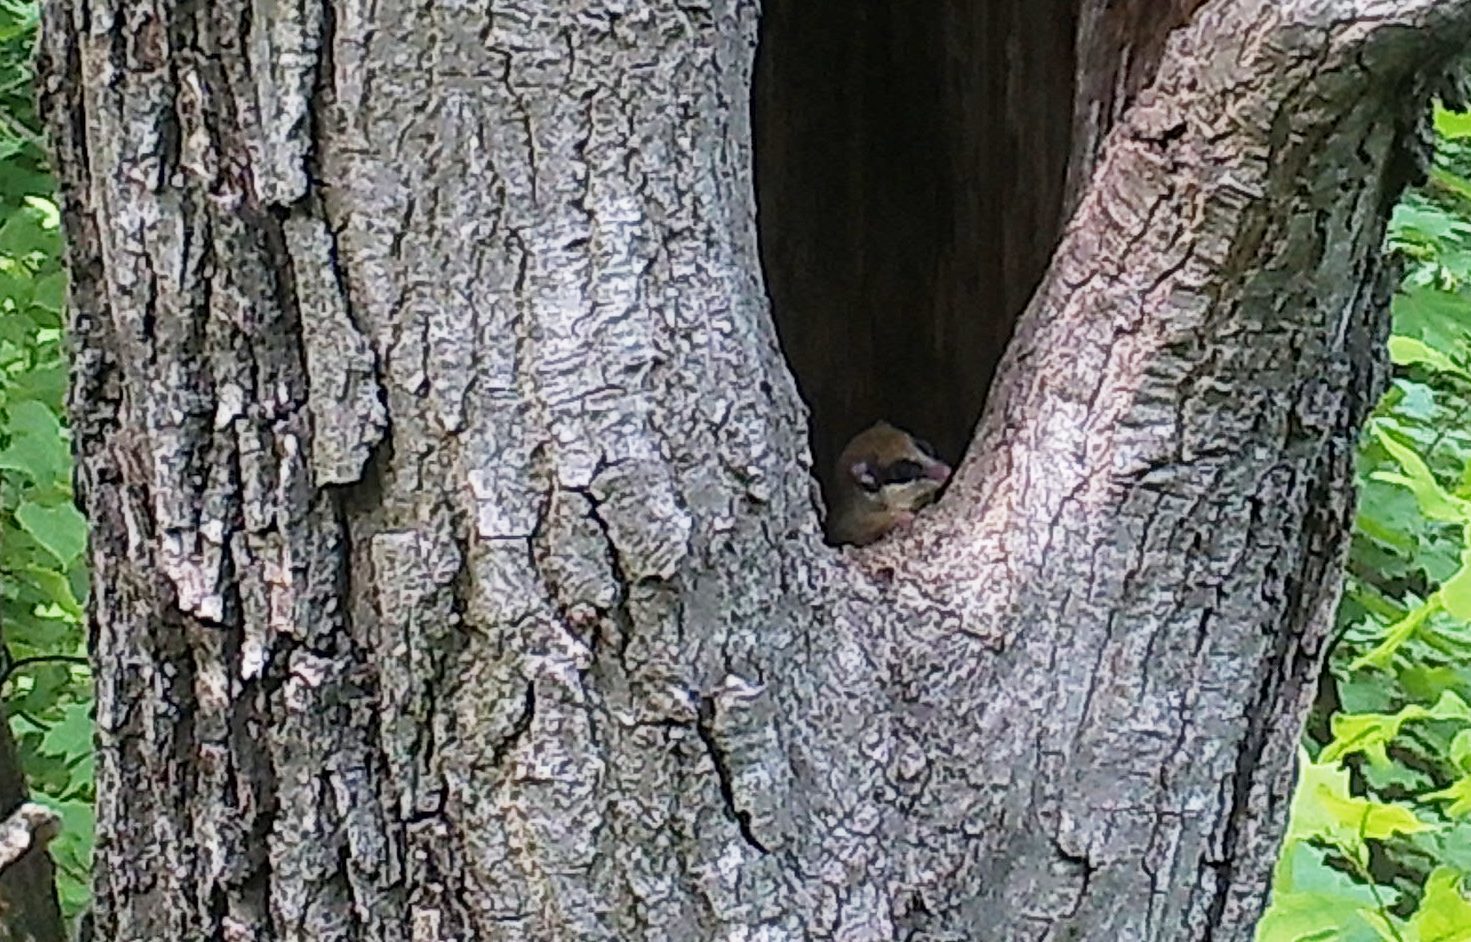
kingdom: Animalia
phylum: Chordata
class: Mammalia
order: Rodentia
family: Gliridae
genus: Dryomys
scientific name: Dryomys nitedula
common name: Forest dormouse
